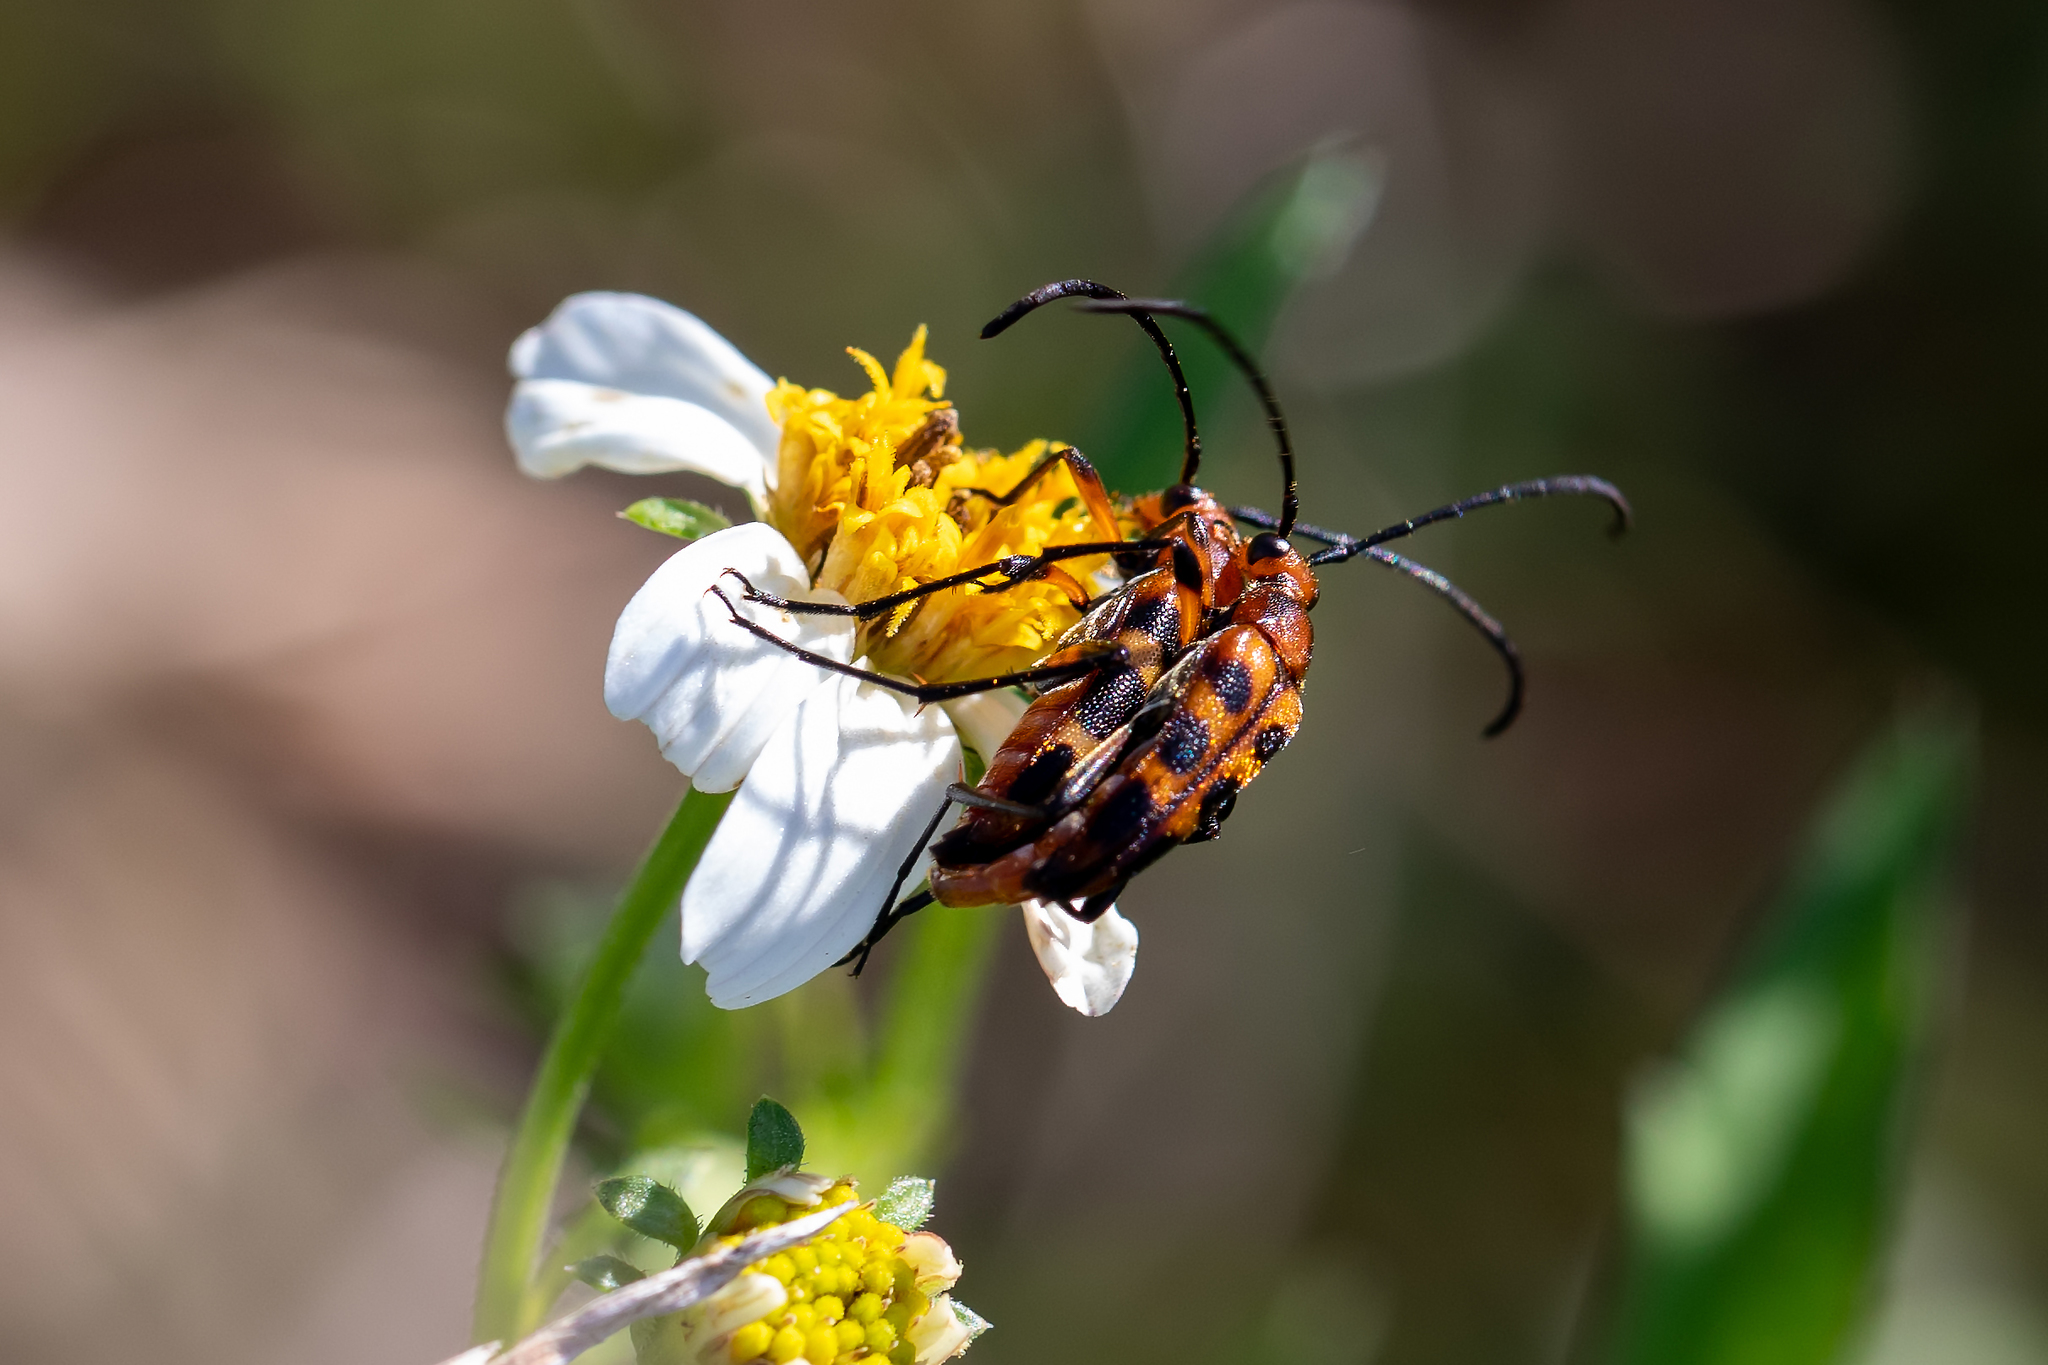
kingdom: Animalia
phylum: Arthropoda
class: Insecta
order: Coleoptera
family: Cerambycidae
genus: Strangalia
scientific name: Strangalia sexnotata
